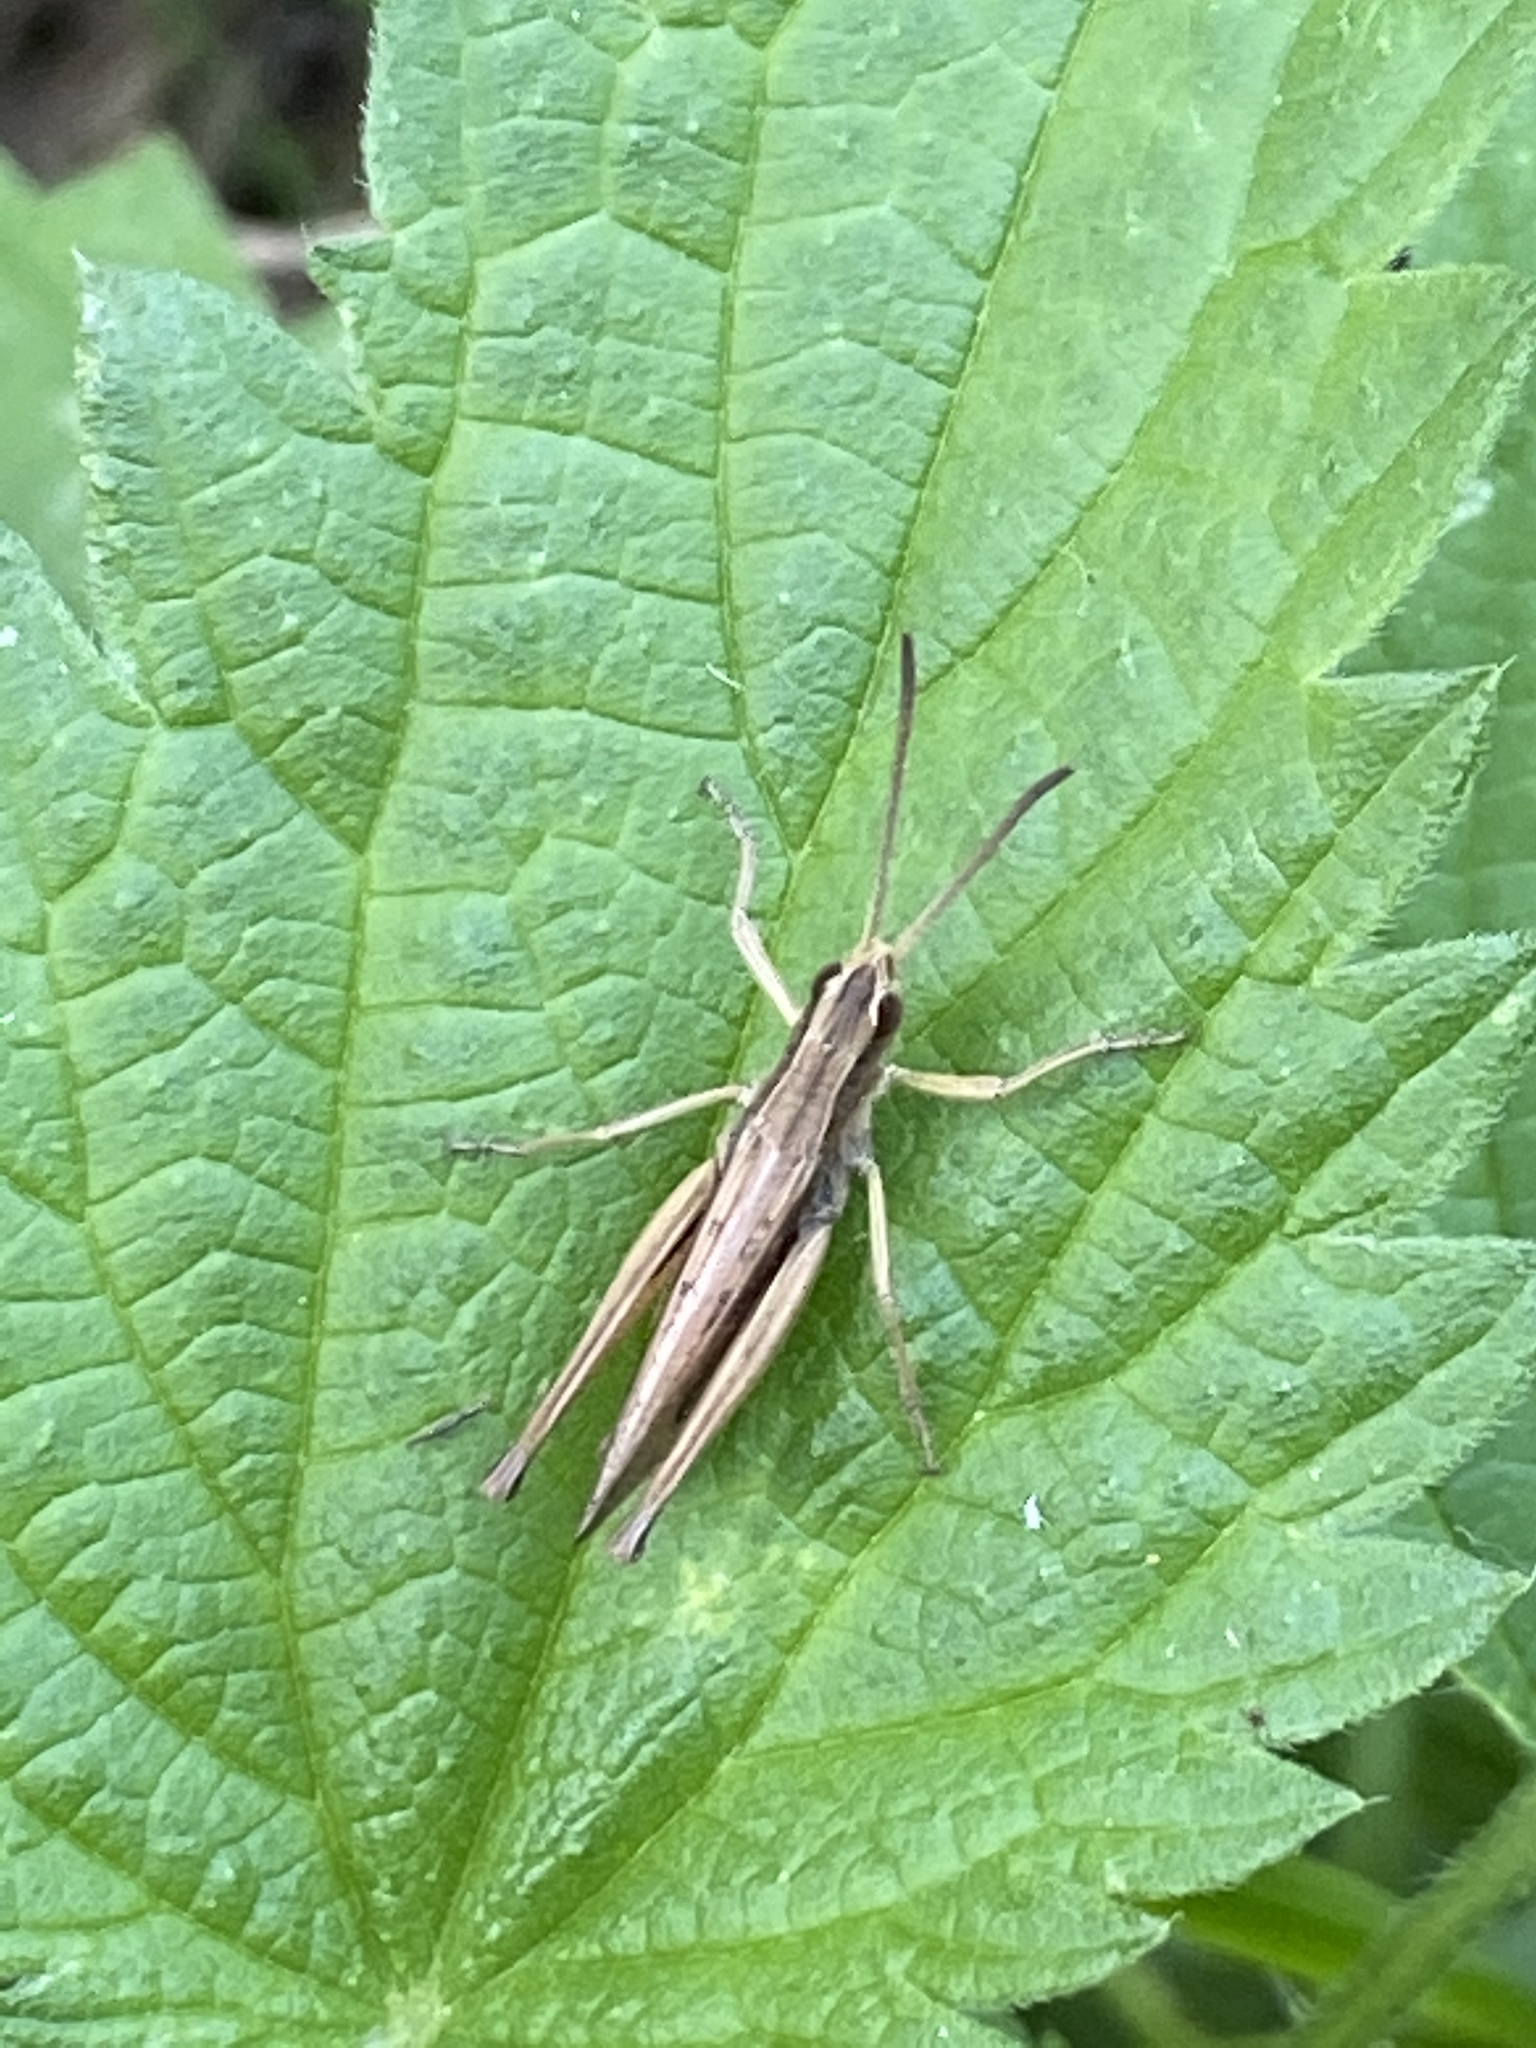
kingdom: Animalia
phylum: Arthropoda
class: Insecta
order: Orthoptera
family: Acrididae
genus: Chorthippus
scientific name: Chorthippus albomarginatus
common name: Lesser marsh grasshopper
